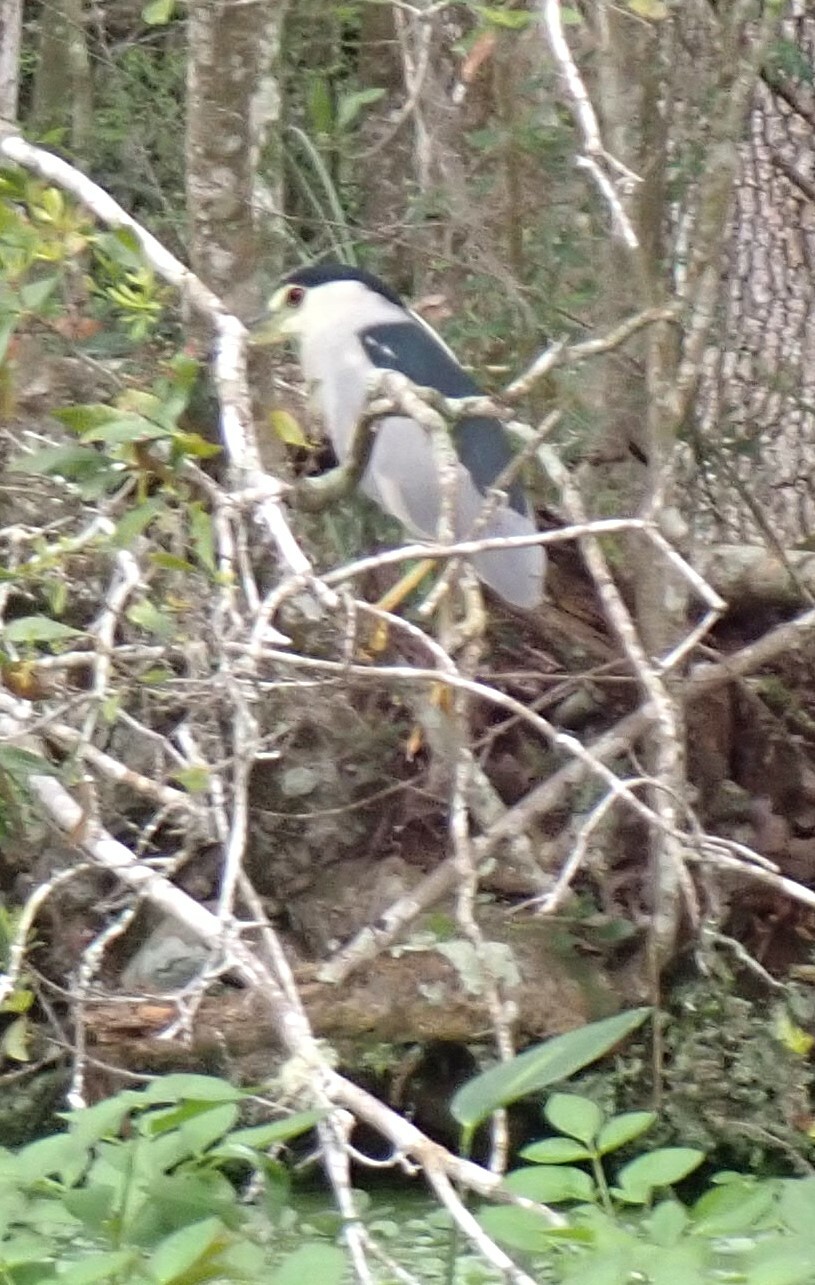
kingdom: Animalia
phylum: Chordata
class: Aves
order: Pelecaniformes
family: Ardeidae
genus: Nycticorax
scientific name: Nycticorax nycticorax
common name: Black-crowned night heron
